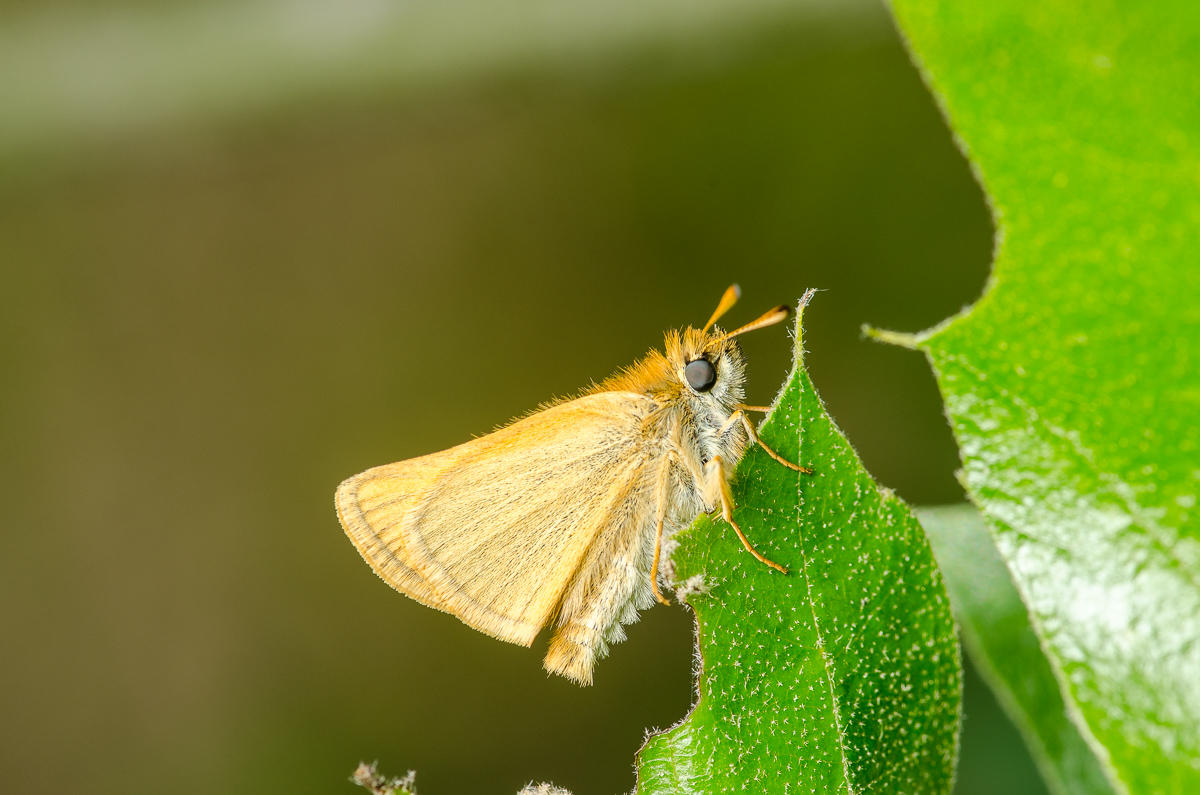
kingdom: Animalia
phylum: Arthropoda
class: Insecta
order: Lepidoptera
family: Hesperiidae
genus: Thymelicus
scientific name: Thymelicus lineola
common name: Essex skipper
